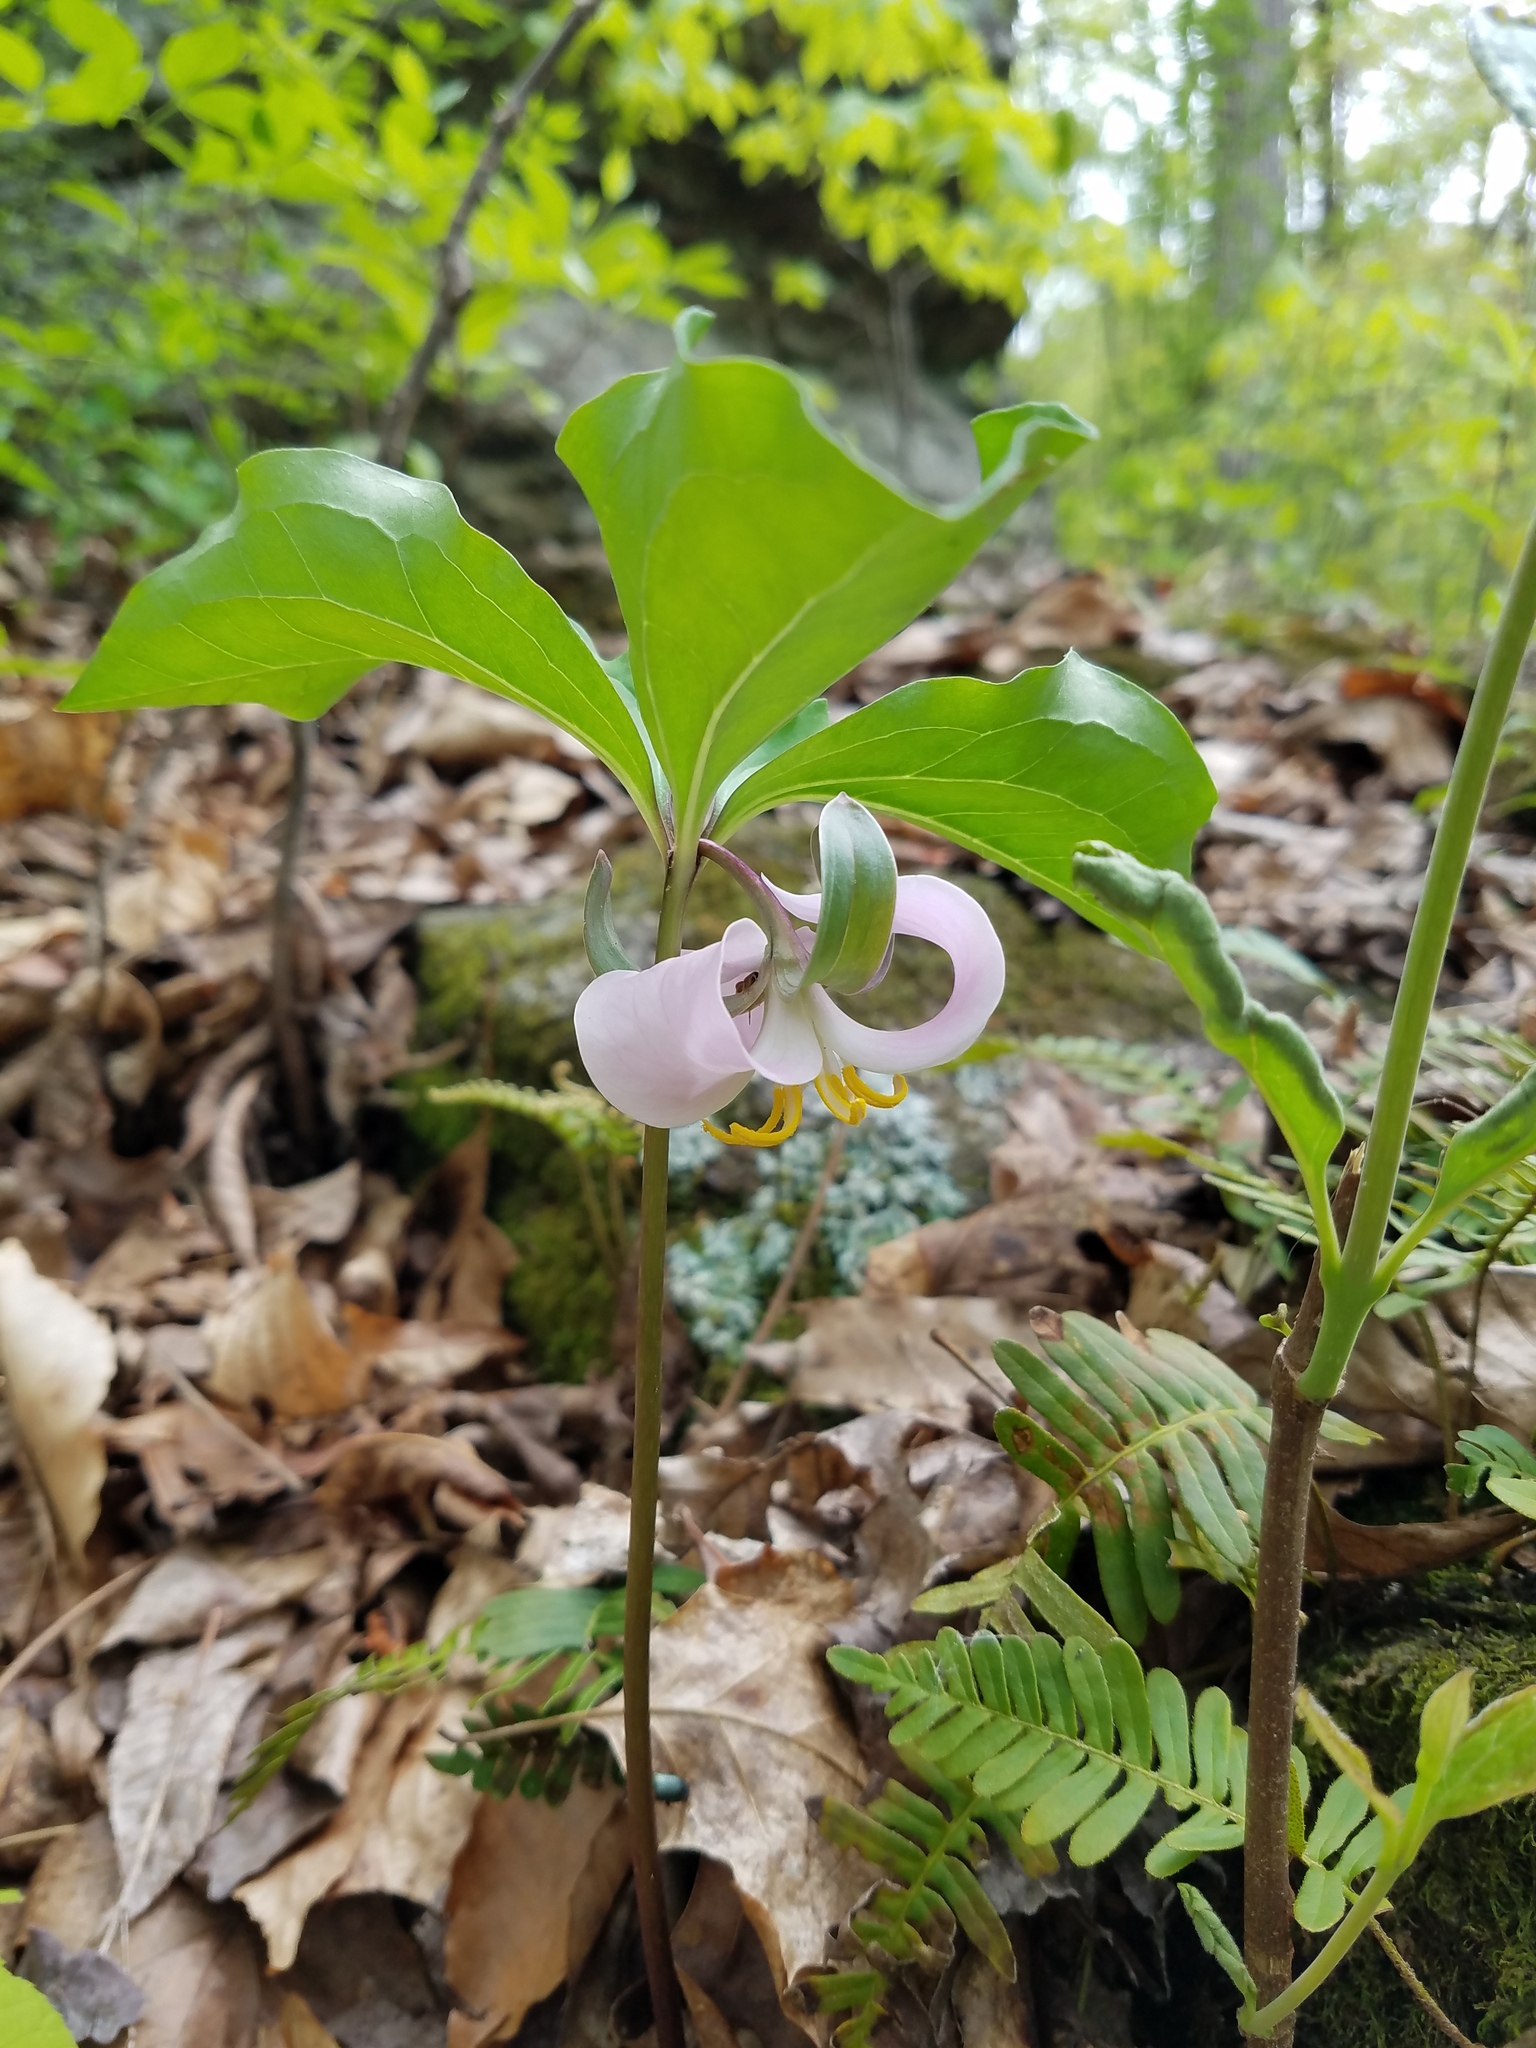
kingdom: Plantae
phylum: Tracheophyta
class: Liliopsida
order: Liliales
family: Melanthiaceae
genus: Trillium
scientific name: Trillium catesbaei
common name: Bashful trillium
